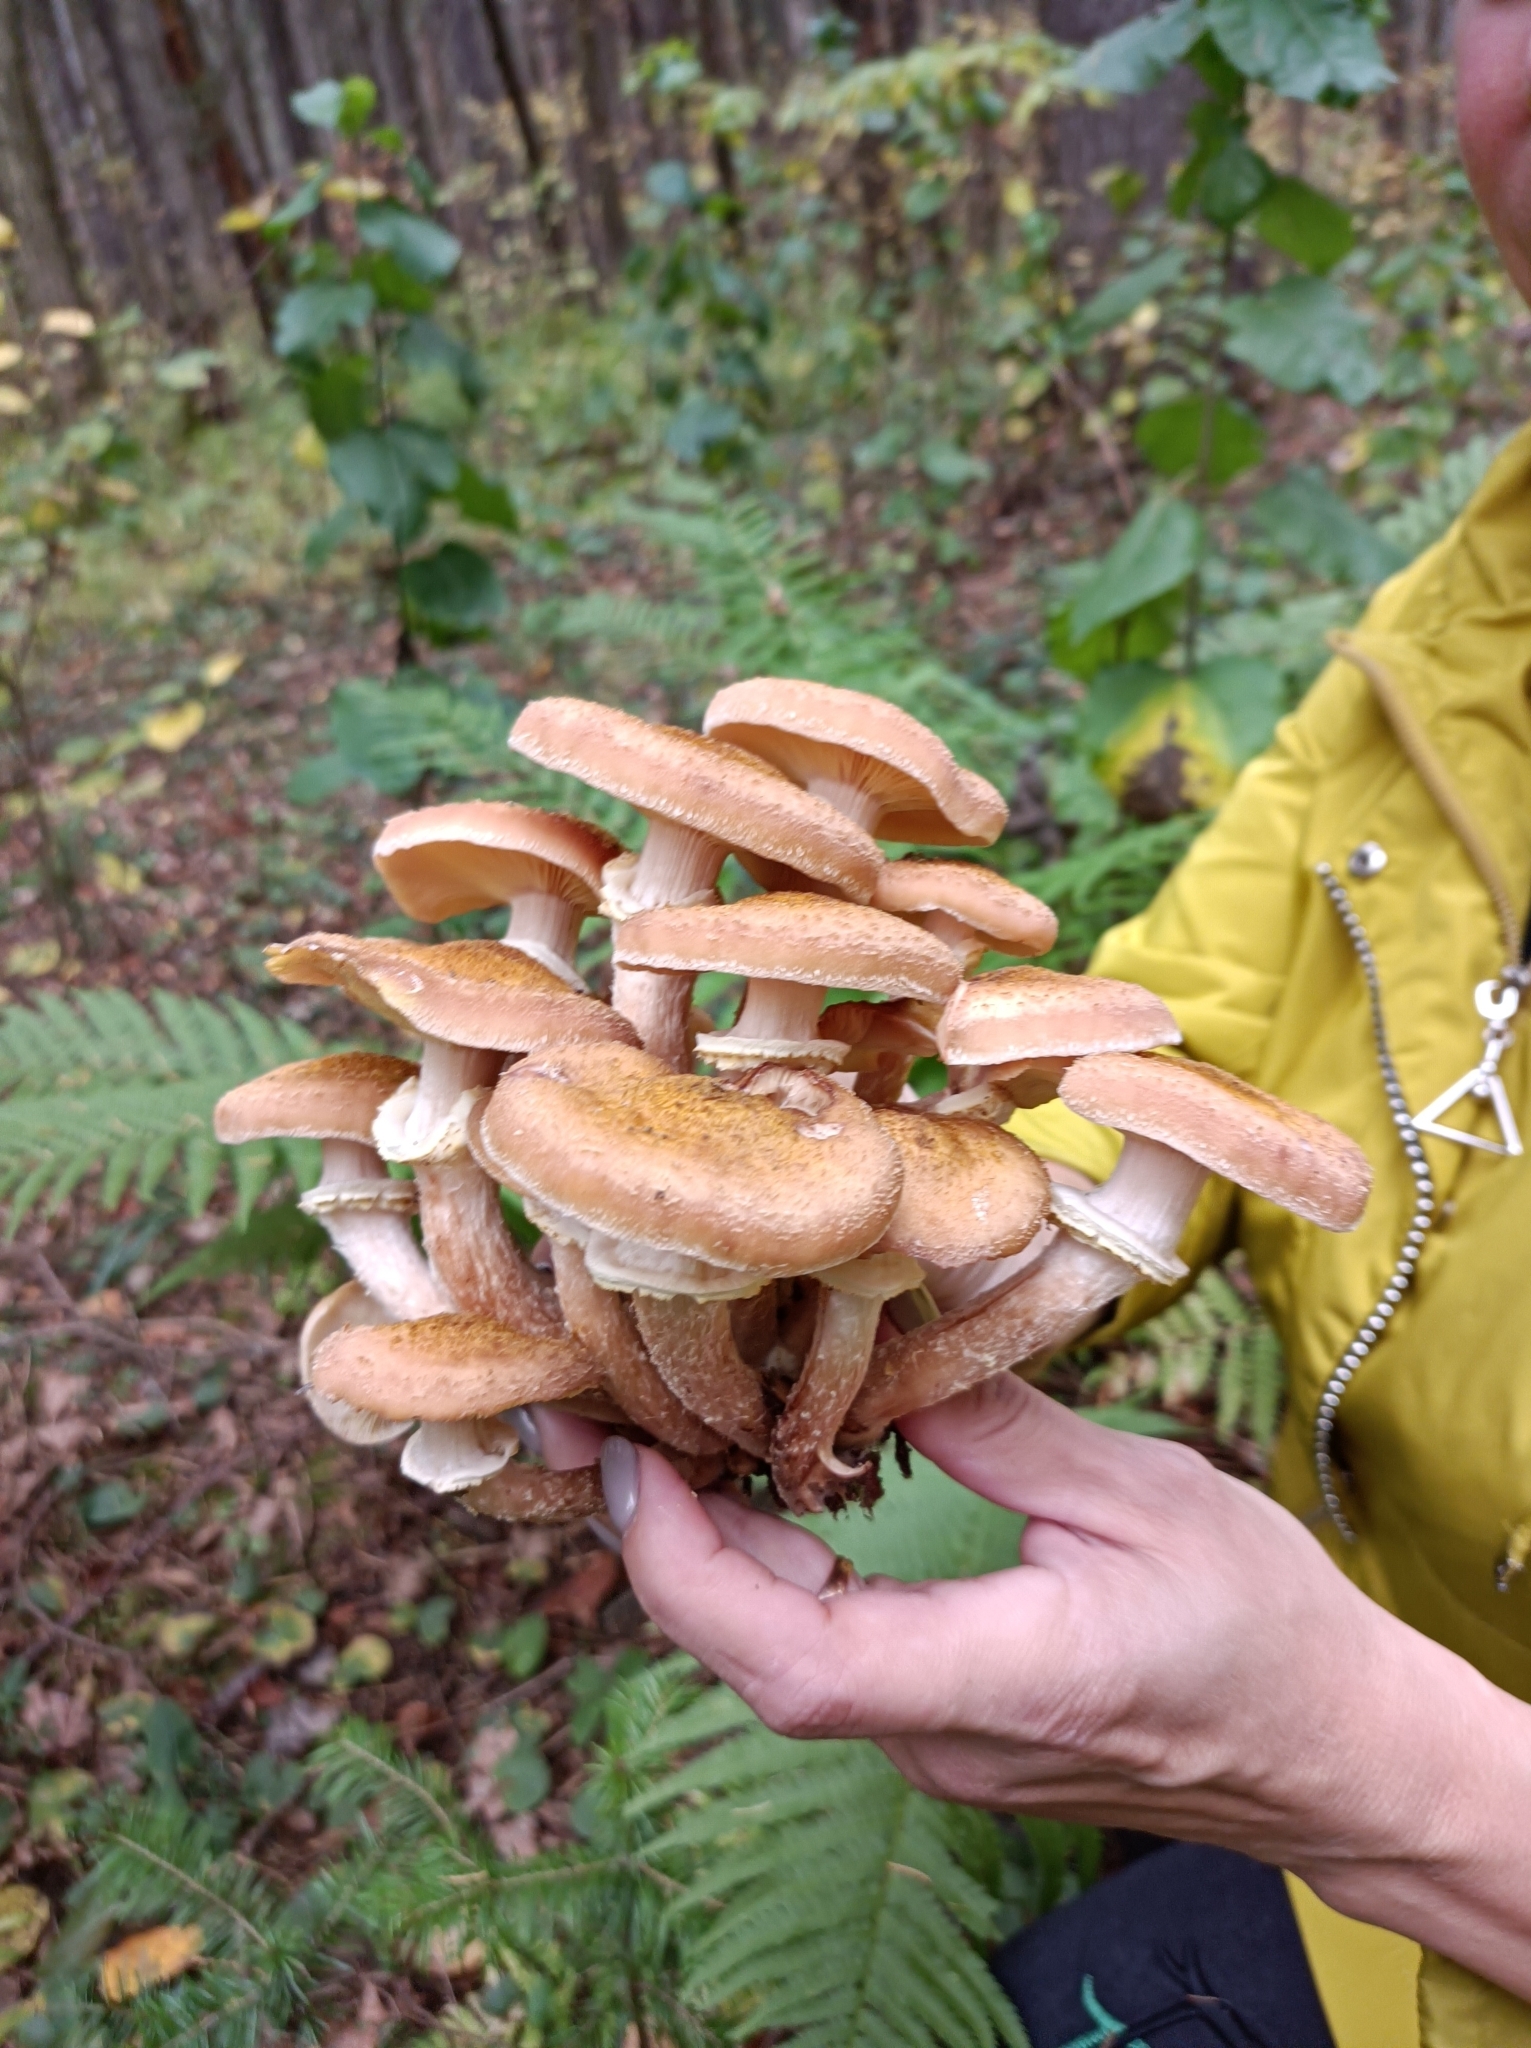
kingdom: Fungi
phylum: Basidiomycota
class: Agaricomycetes
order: Agaricales
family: Physalacriaceae
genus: Armillaria
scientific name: Armillaria borealis
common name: Northern honey fungus
